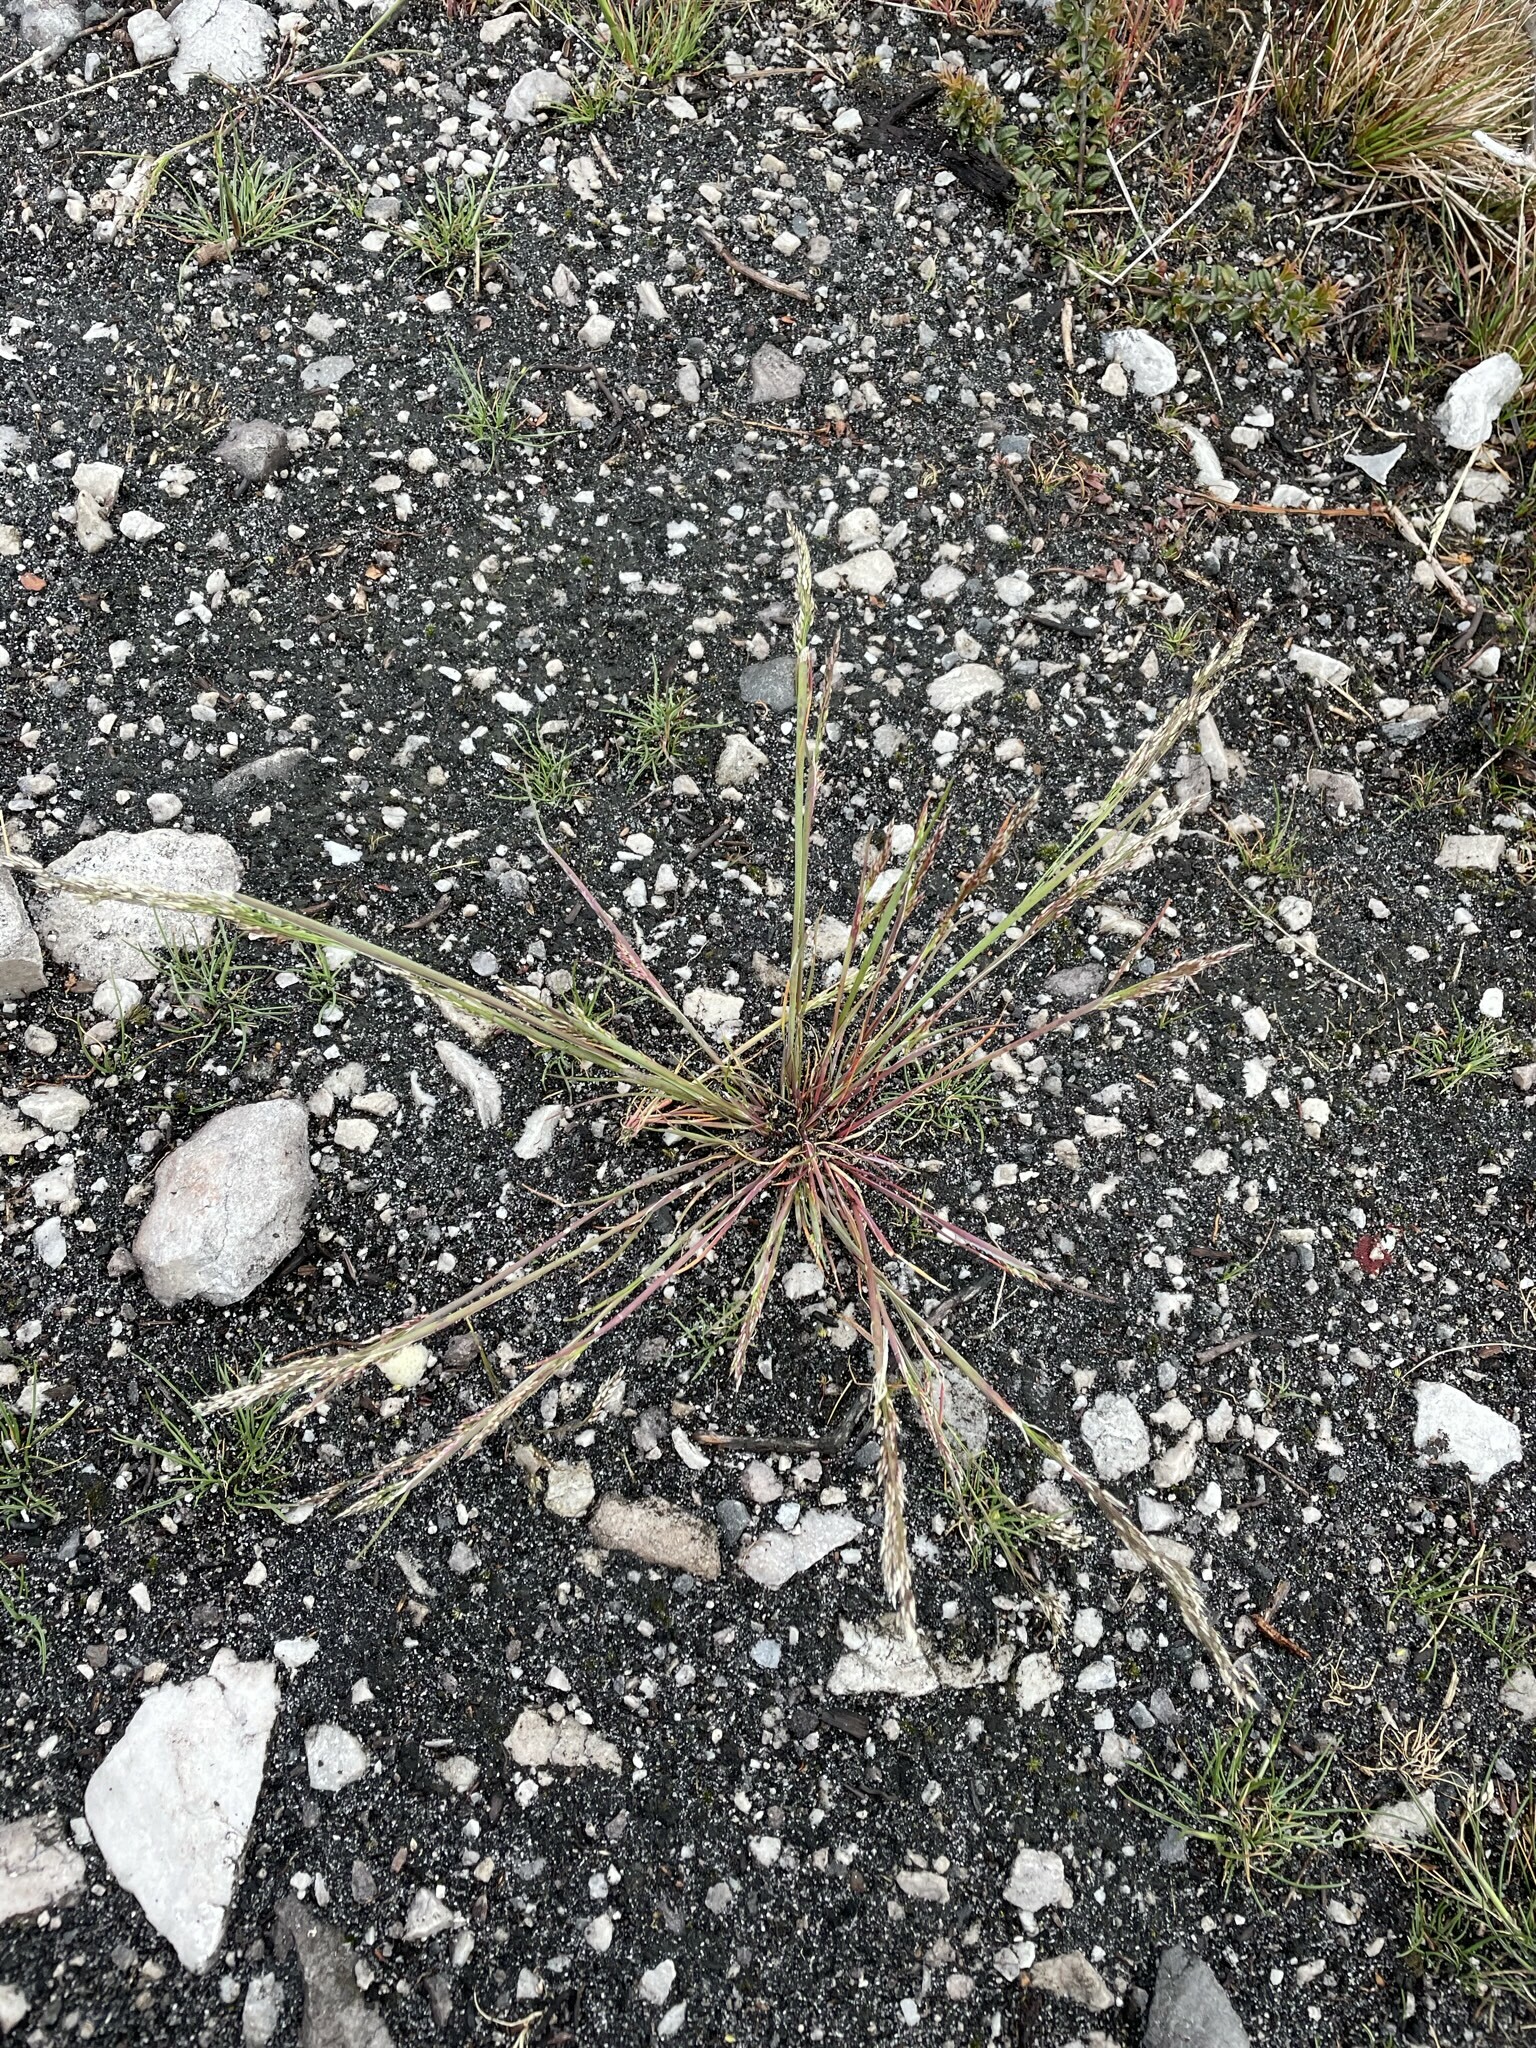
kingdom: Plantae
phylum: Tracheophyta
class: Liliopsida
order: Poales
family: Poaceae
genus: Aira
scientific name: Aira praecox
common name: Early hair-grass
